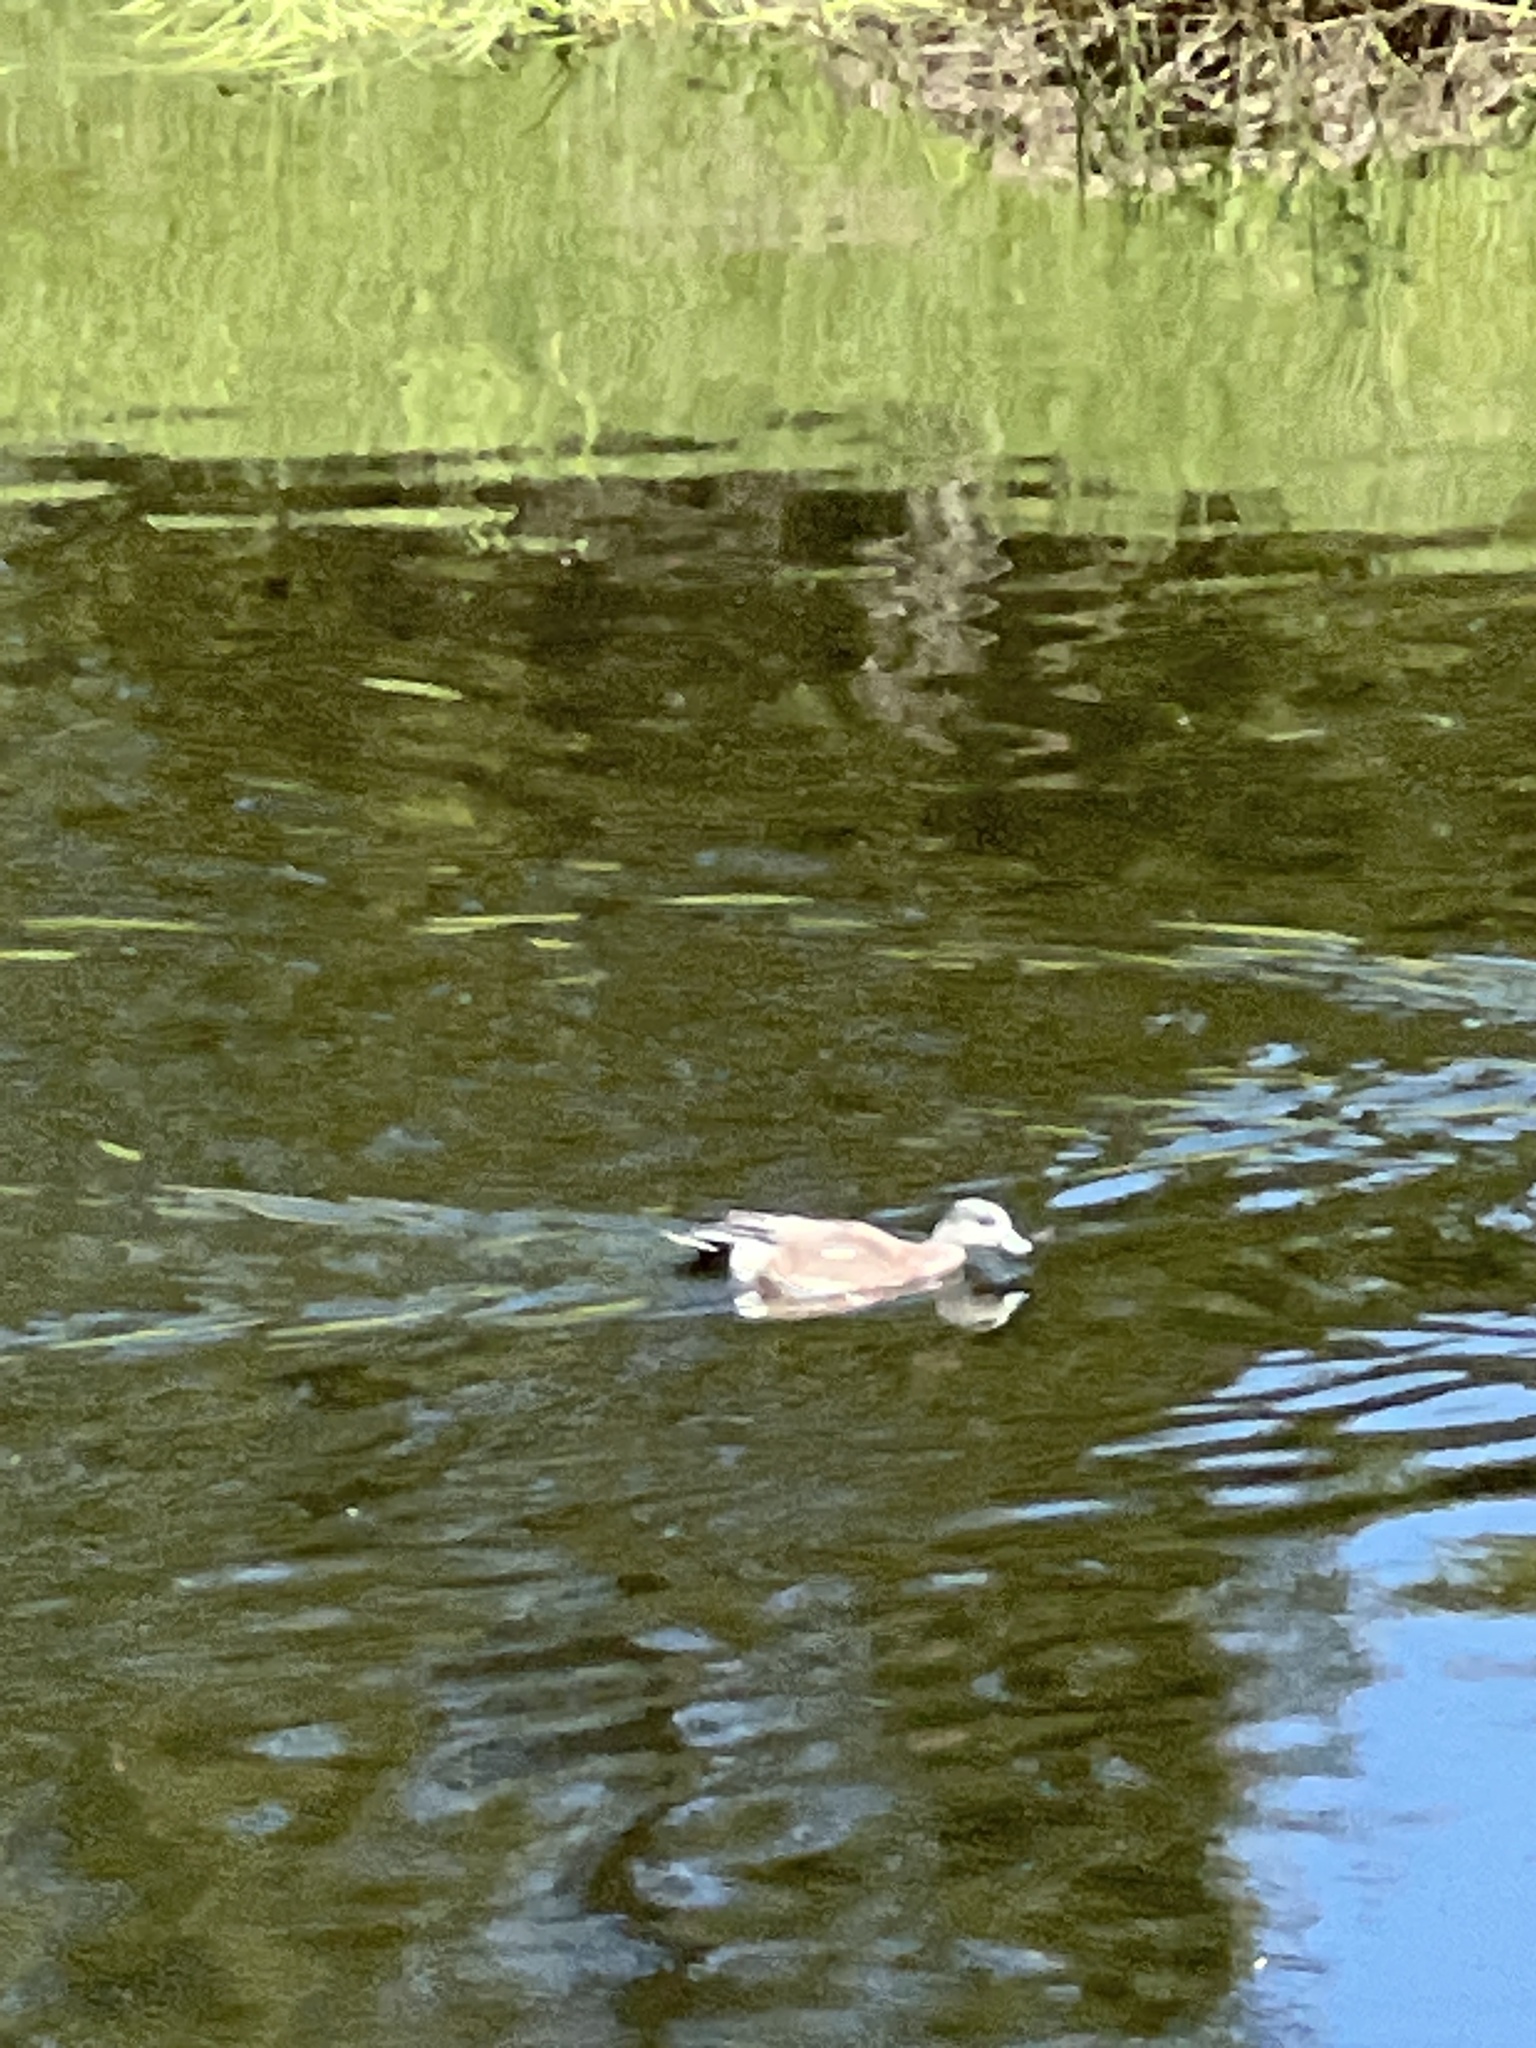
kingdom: Animalia
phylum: Chordata
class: Aves
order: Anseriformes
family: Anatidae
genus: Mareca
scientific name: Mareca americana
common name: American wigeon
